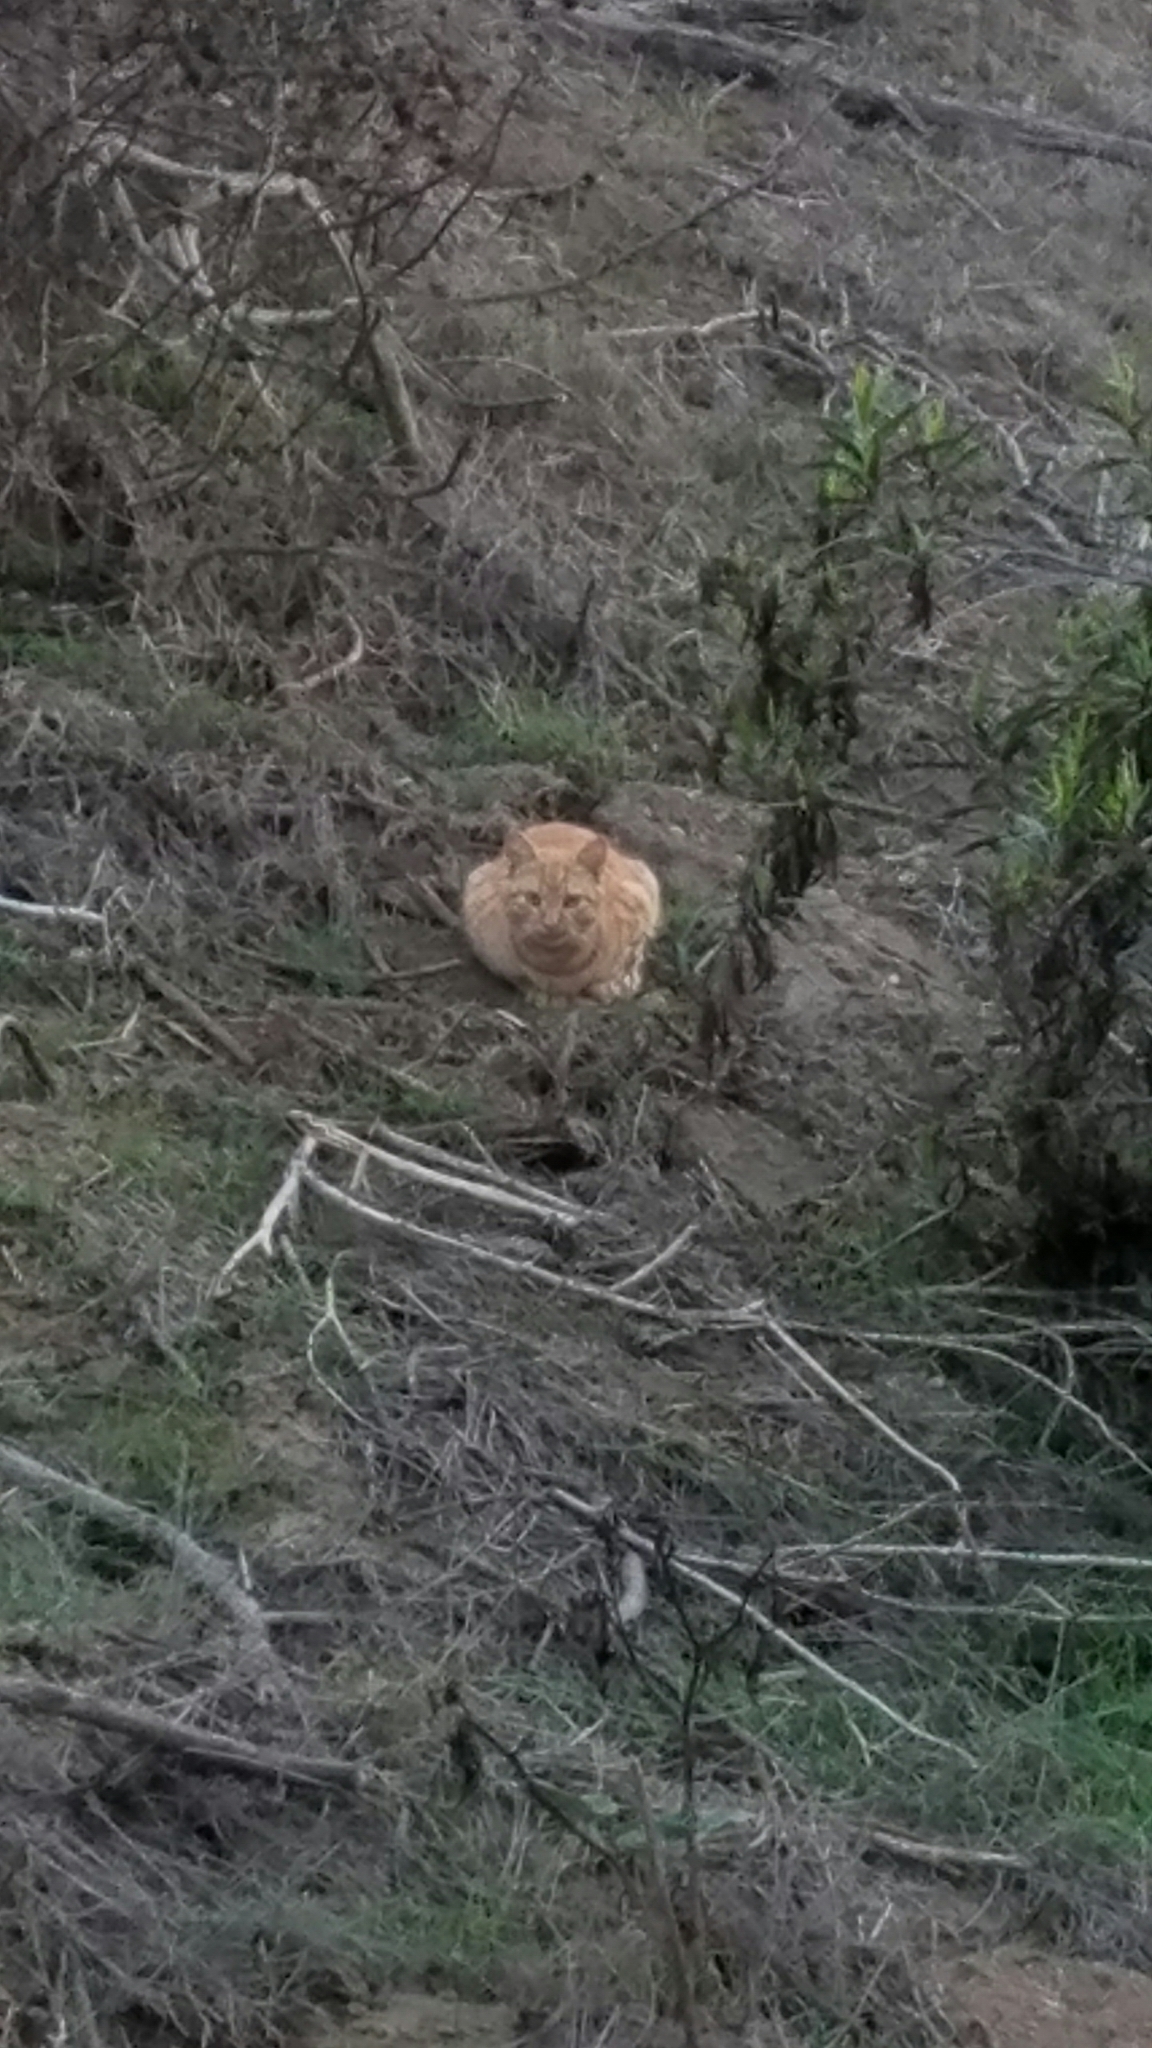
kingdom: Animalia
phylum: Chordata
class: Mammalia
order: Carnivora
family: Felidae
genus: Felis
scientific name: Felis catus
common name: Domestic cat
